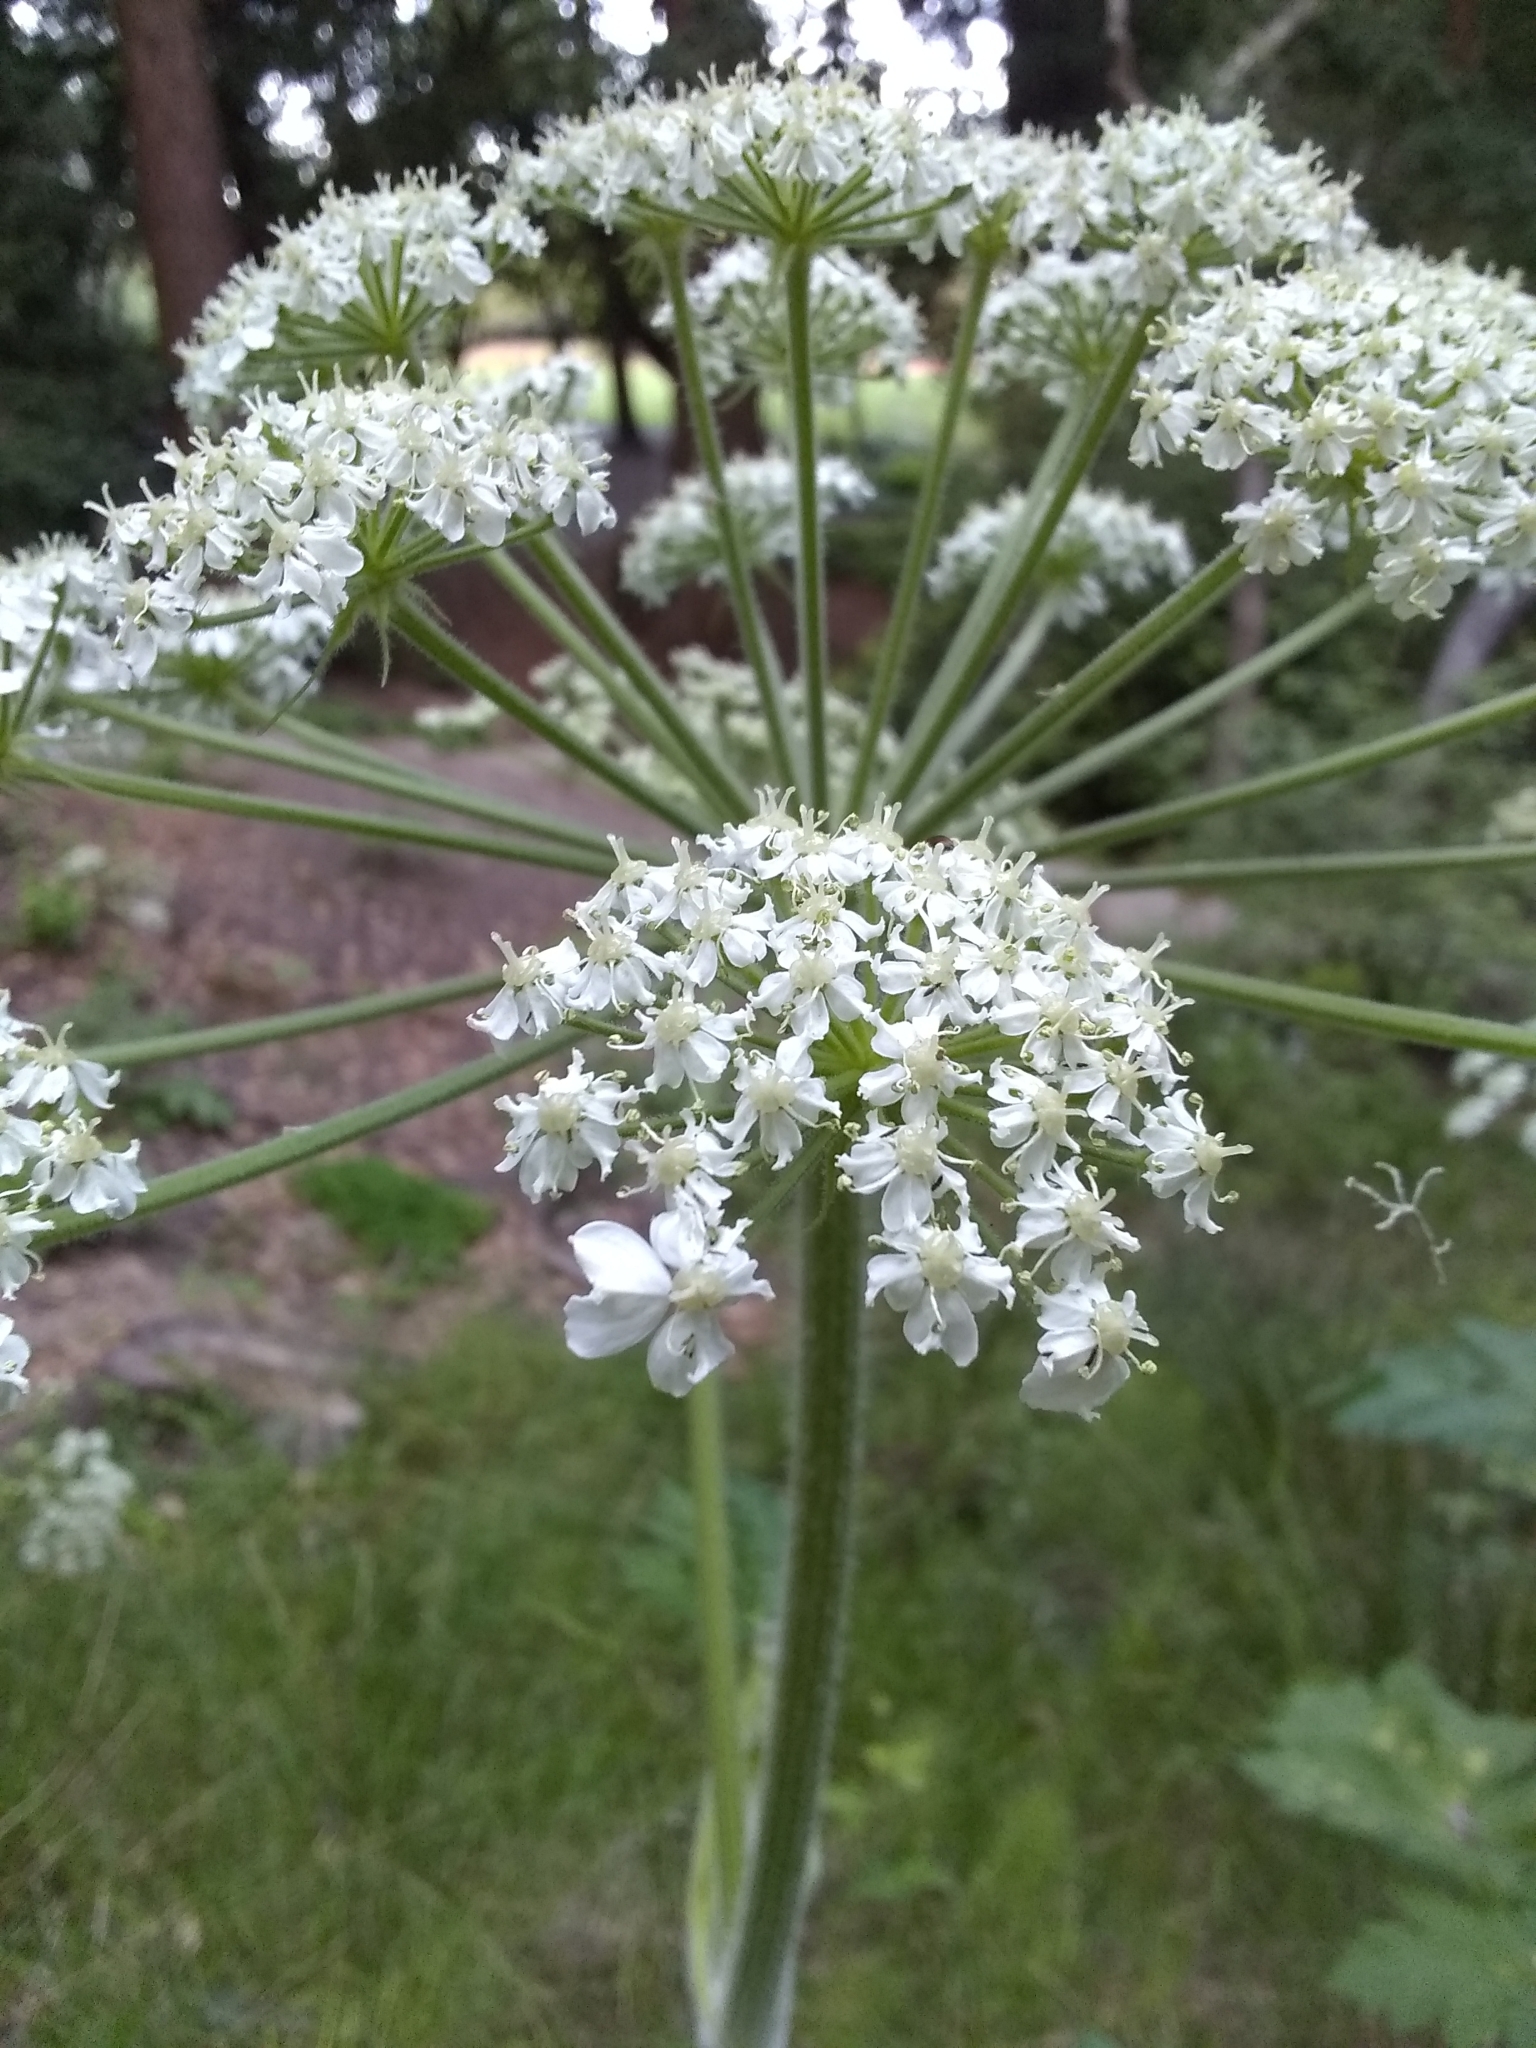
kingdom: Plantae
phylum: Tracheophyta
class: Magnoliopsida
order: Apiales
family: Apiaceae
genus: Heracleum
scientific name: Heracleum maximum
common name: American cow parsnip
